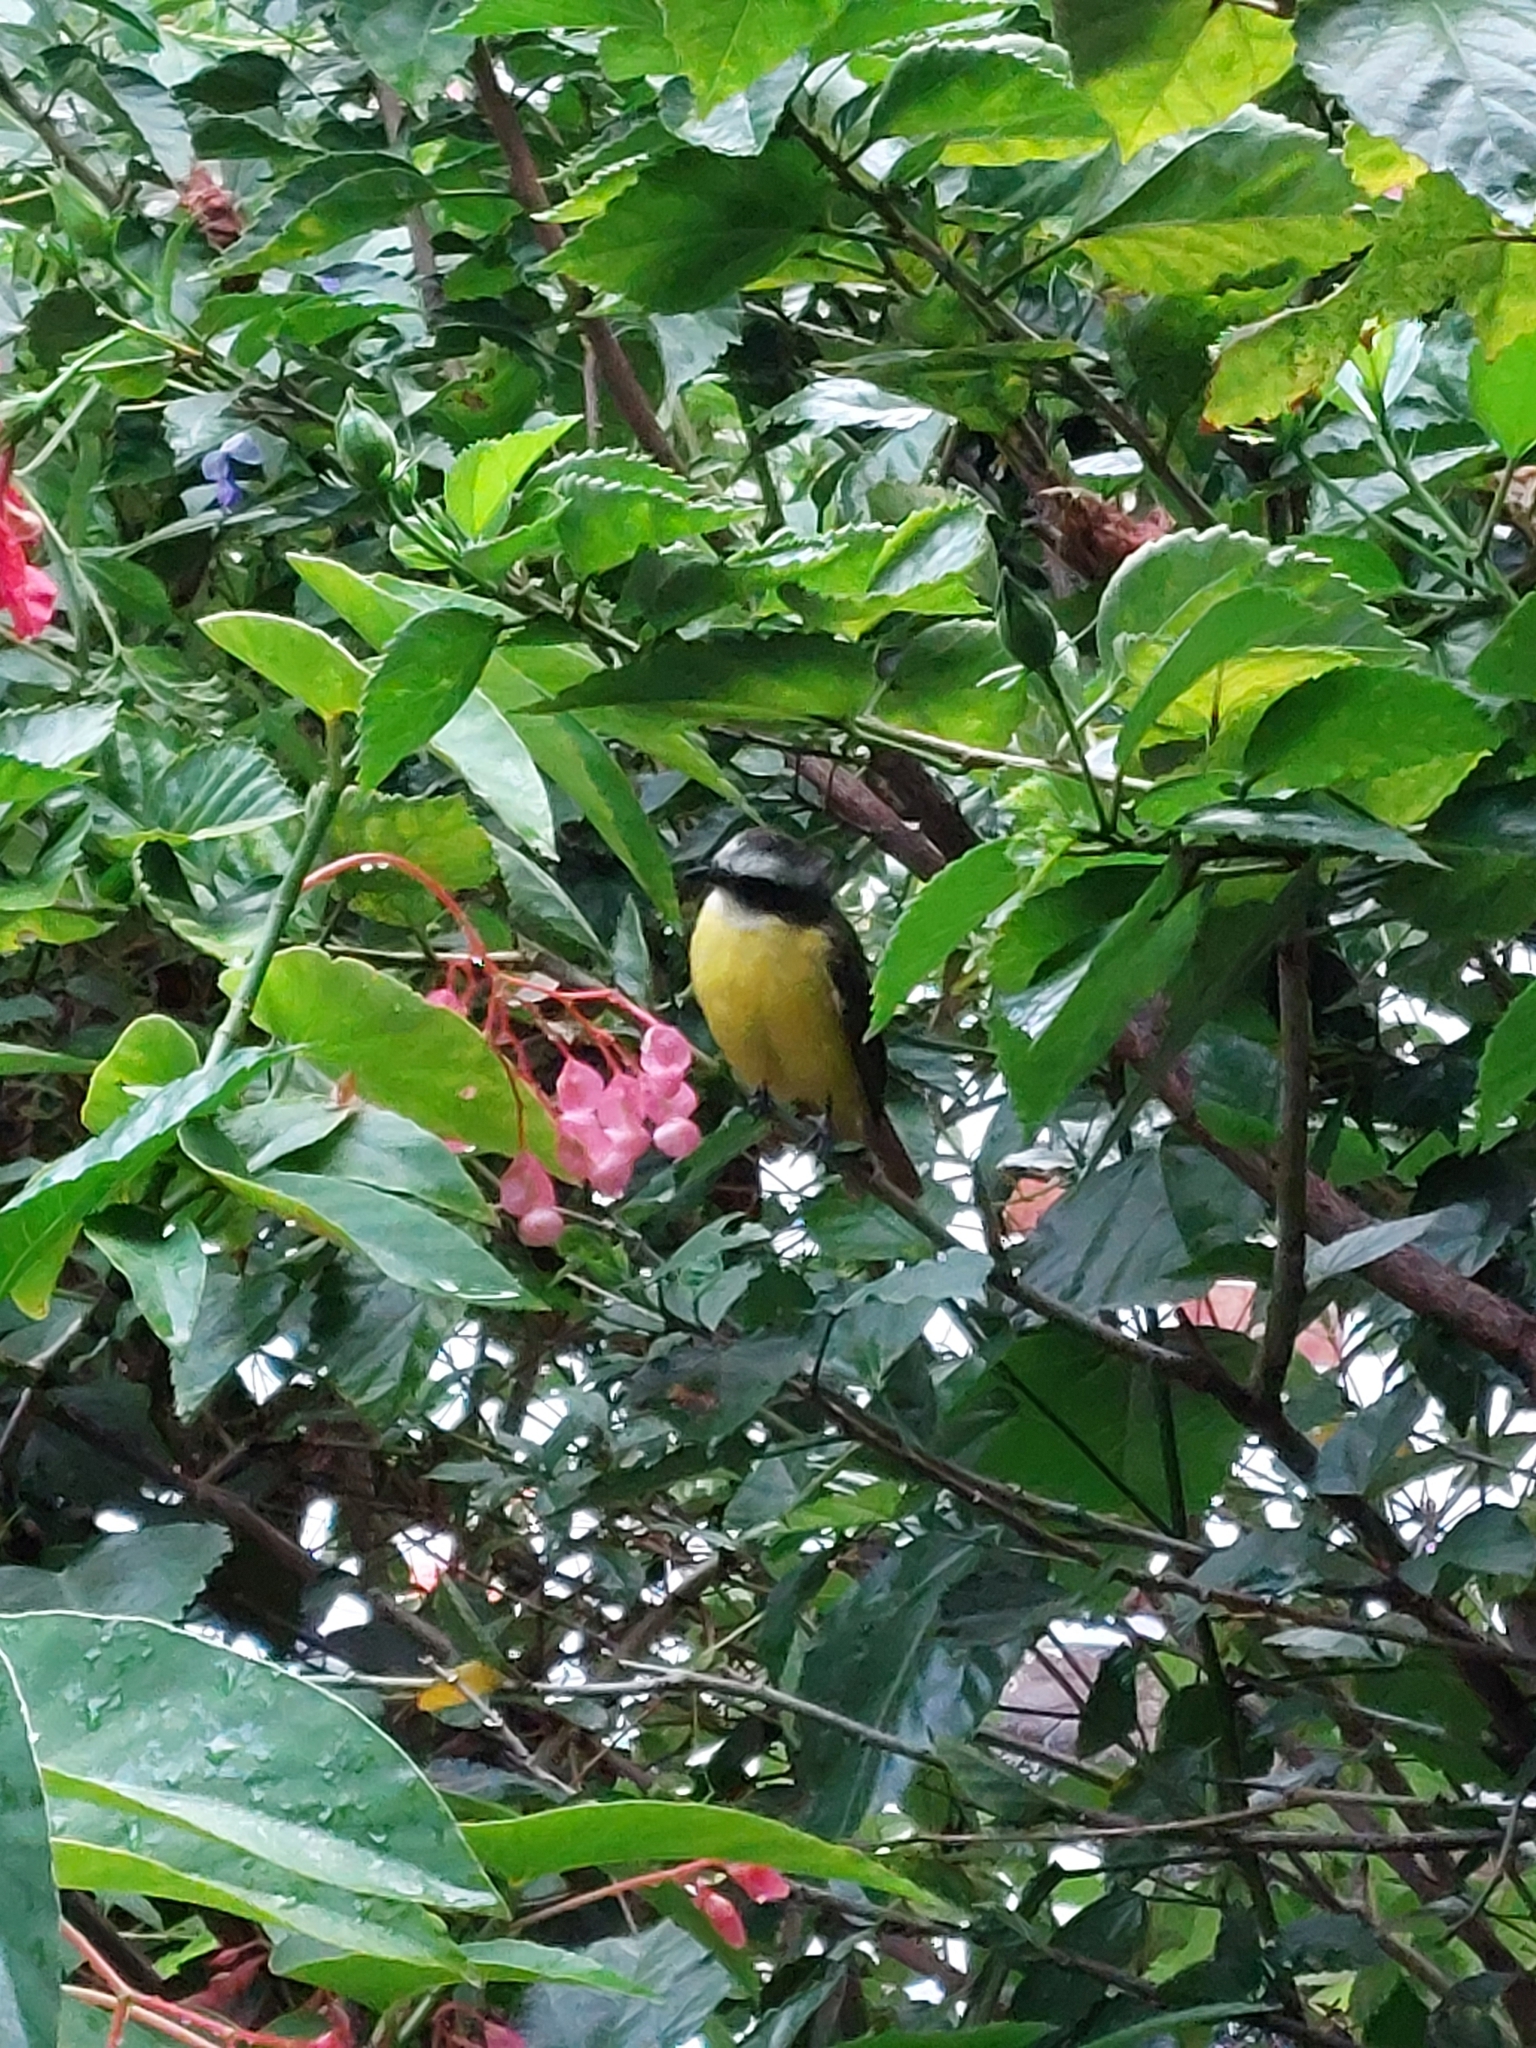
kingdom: Animalia
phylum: Chordata
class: Aves
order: Passeriformes
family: Tyrannidae
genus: Myiozetetes
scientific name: Myiozetetes similis
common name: Social flycatcher
